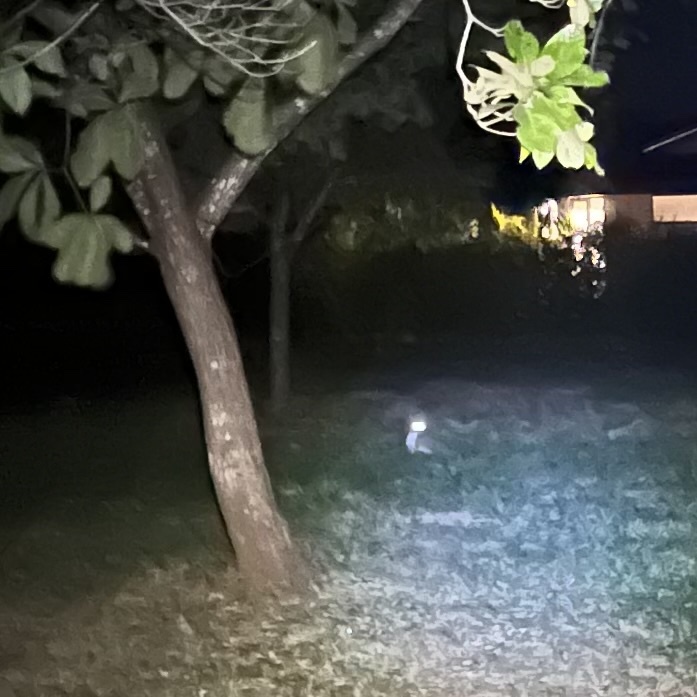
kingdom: Animalia
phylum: Chordata
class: Mammalia
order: Carnivora
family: Canidae
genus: Urocyon
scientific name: Urocyon cinereoargenteus
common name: Gray fox
